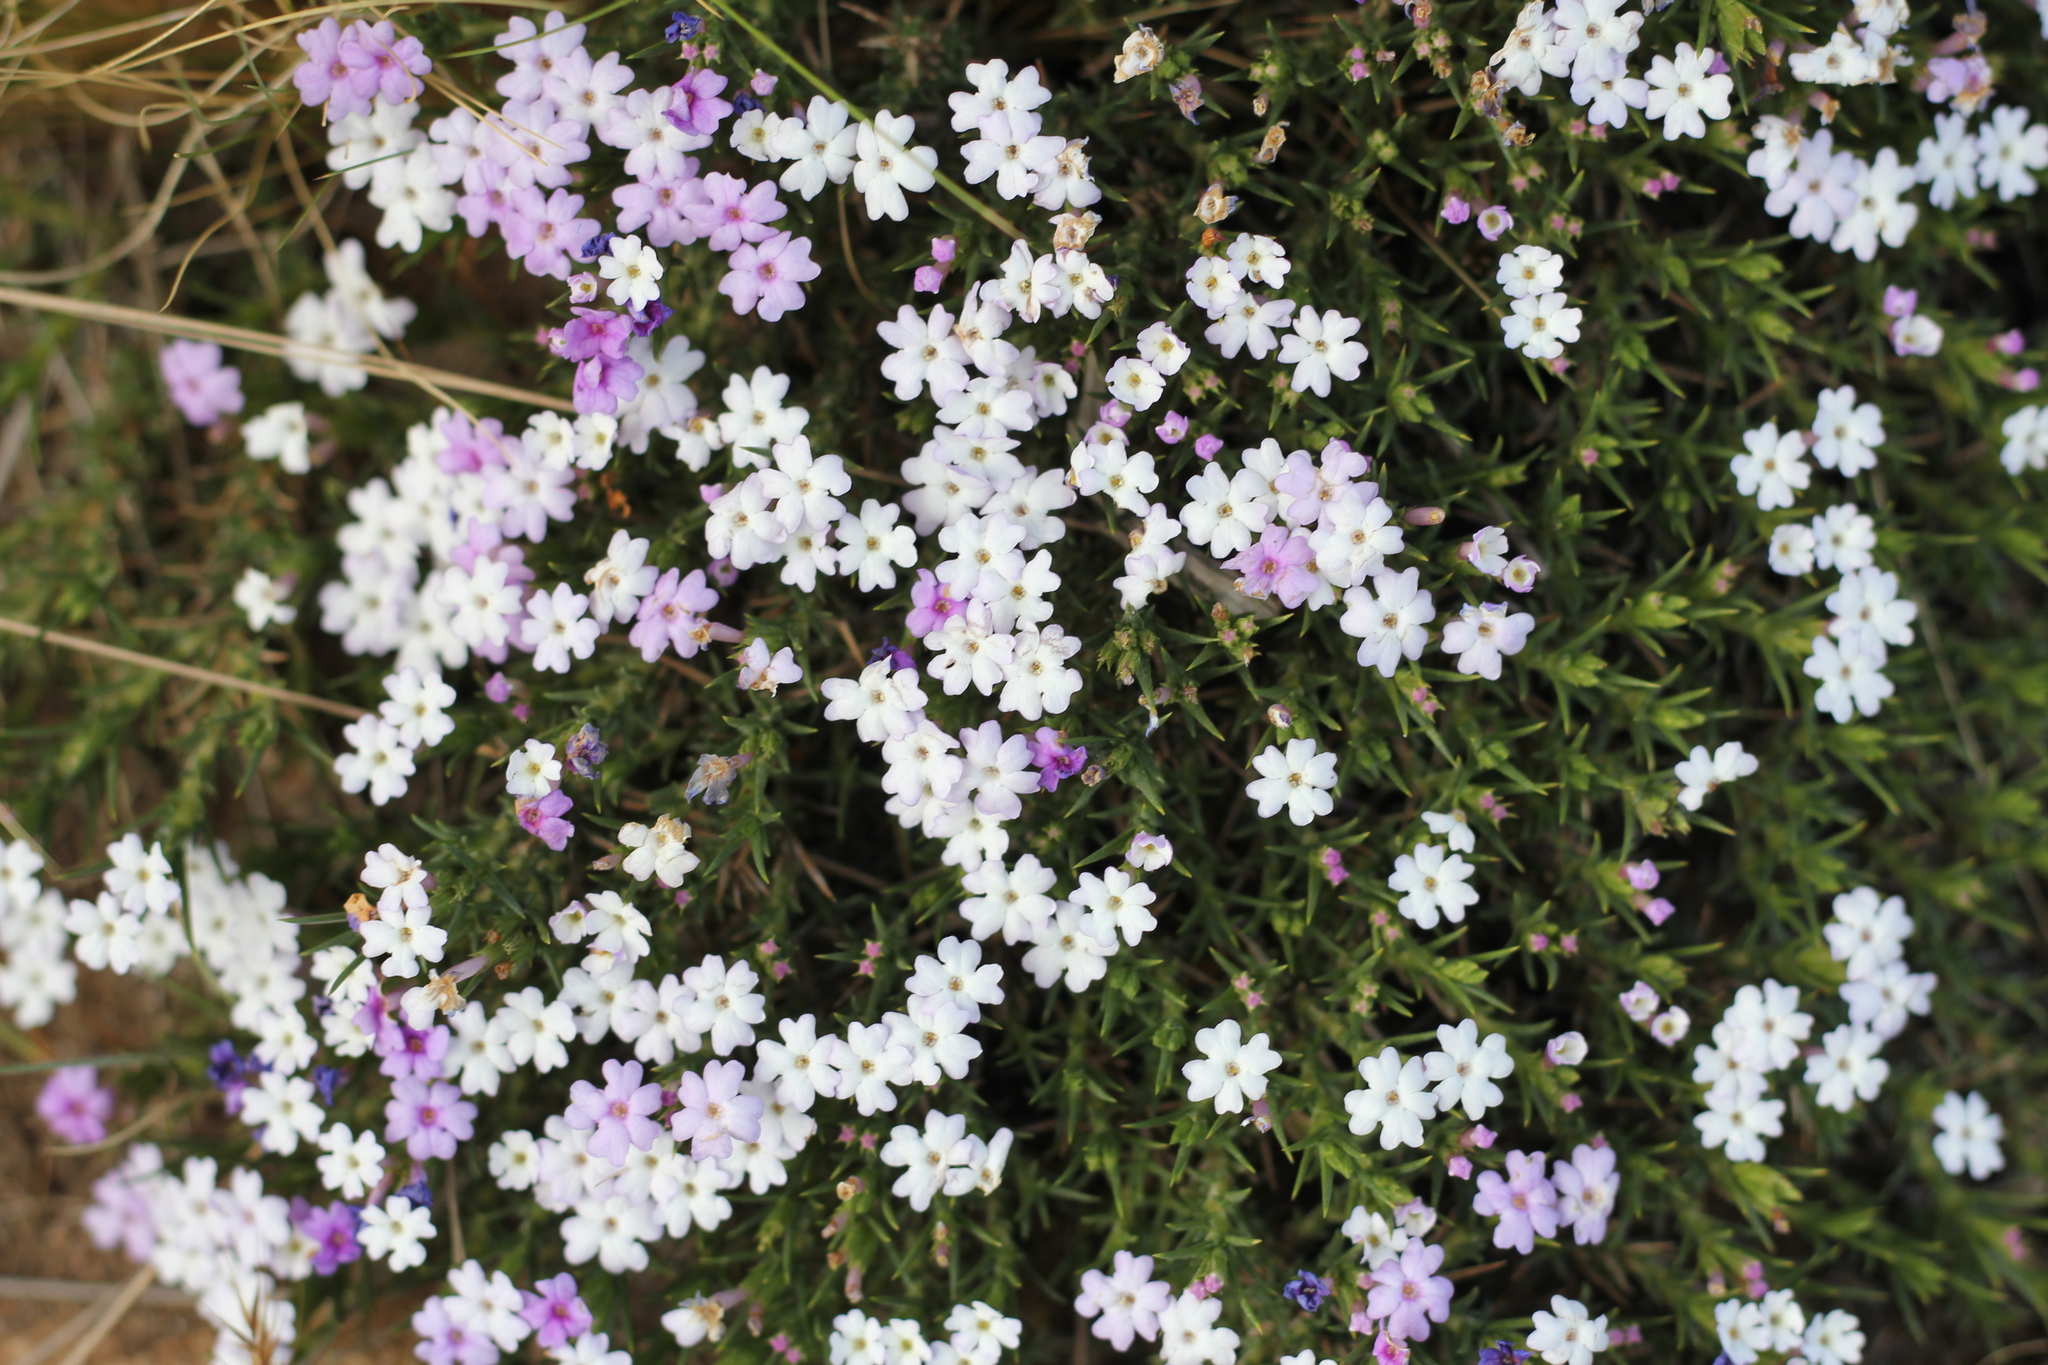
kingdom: Plantae
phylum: Tracheophyta
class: Magnoliopsida
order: Lamiales
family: Verbenaceae
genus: Junellia
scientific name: Junellia toninii
